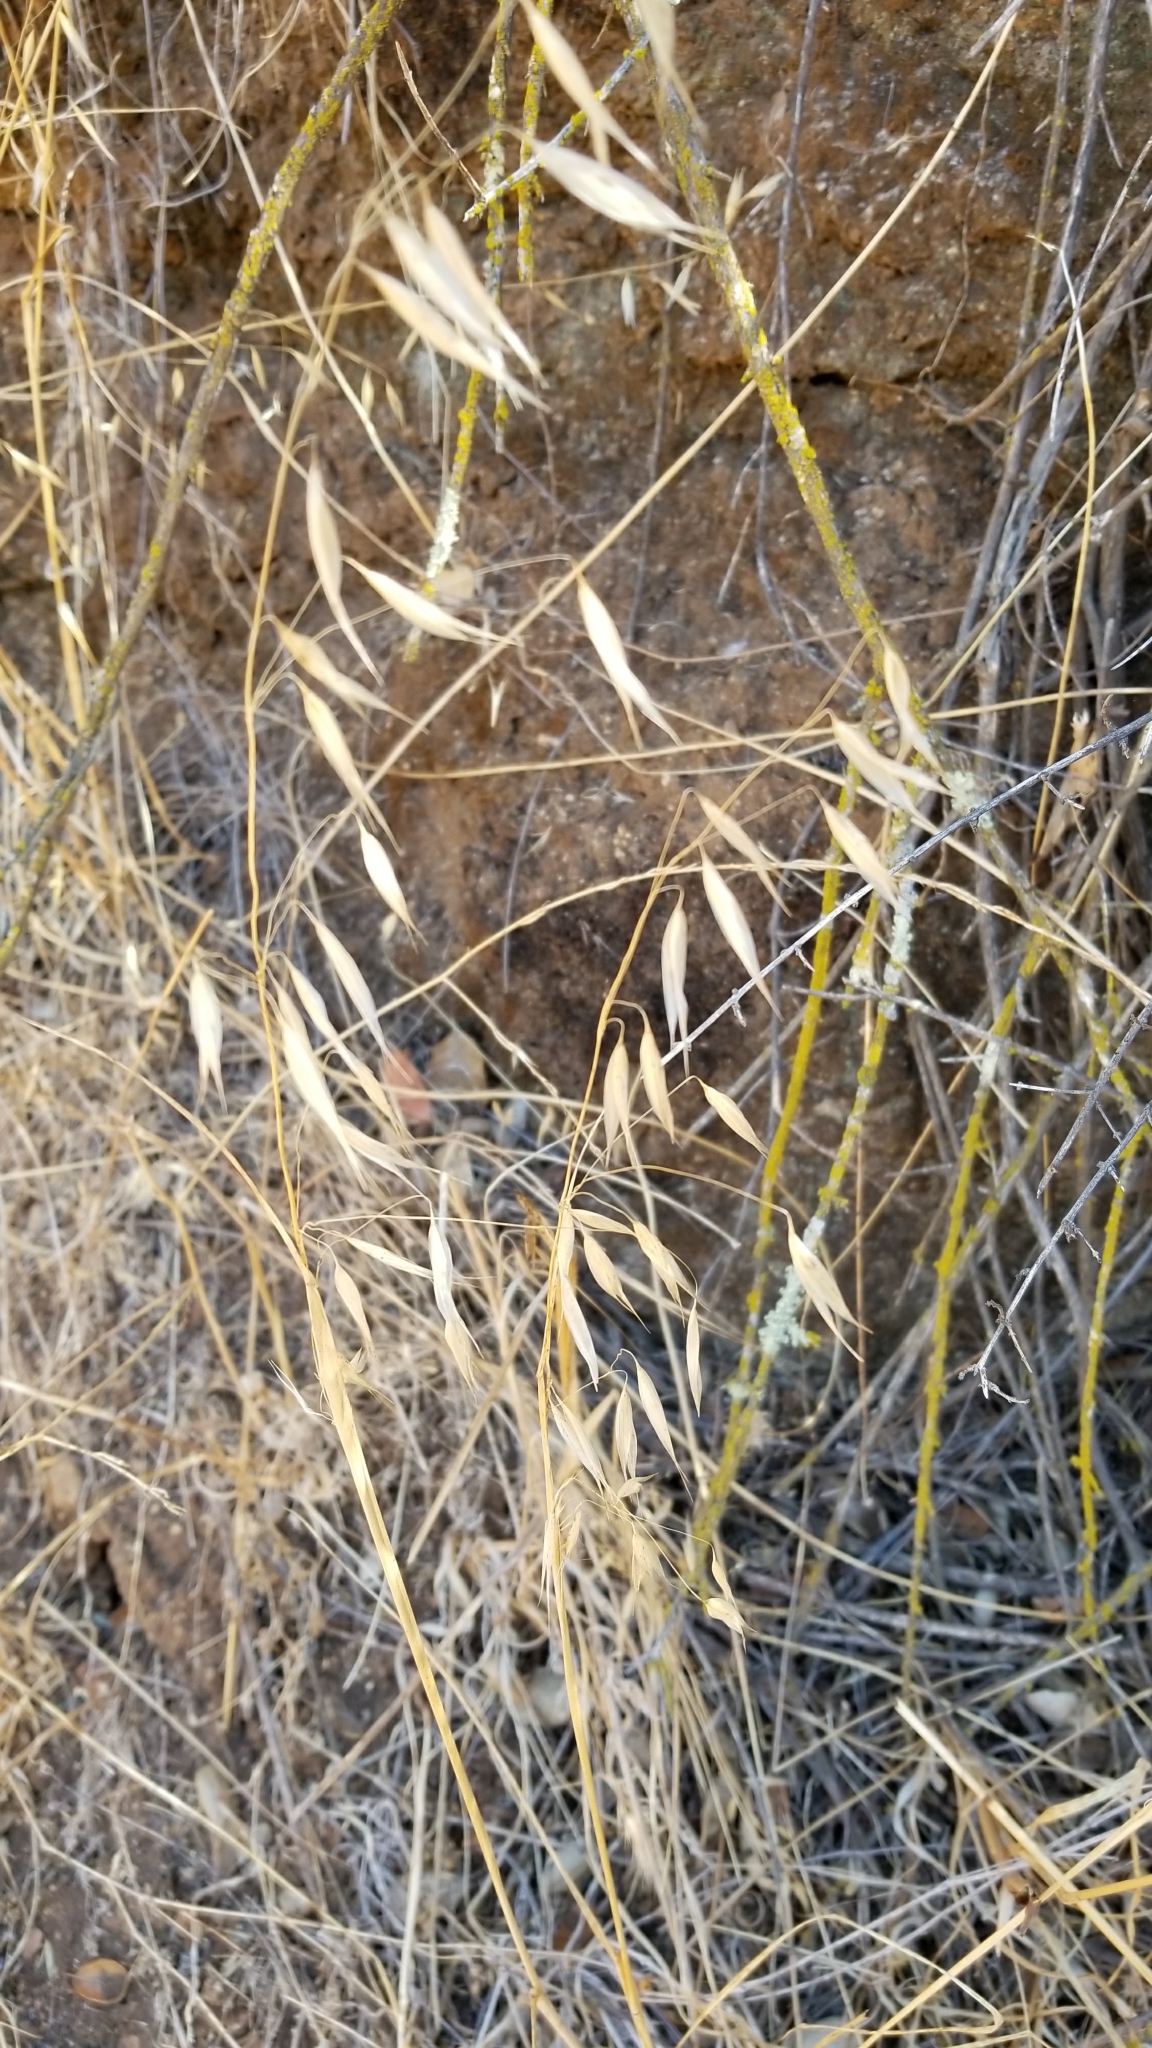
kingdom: Plantae
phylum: Tracheophyta
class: Liliopsida
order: Poales
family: Poaceae
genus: Avena
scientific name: Avena fatua
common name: Wild oat
